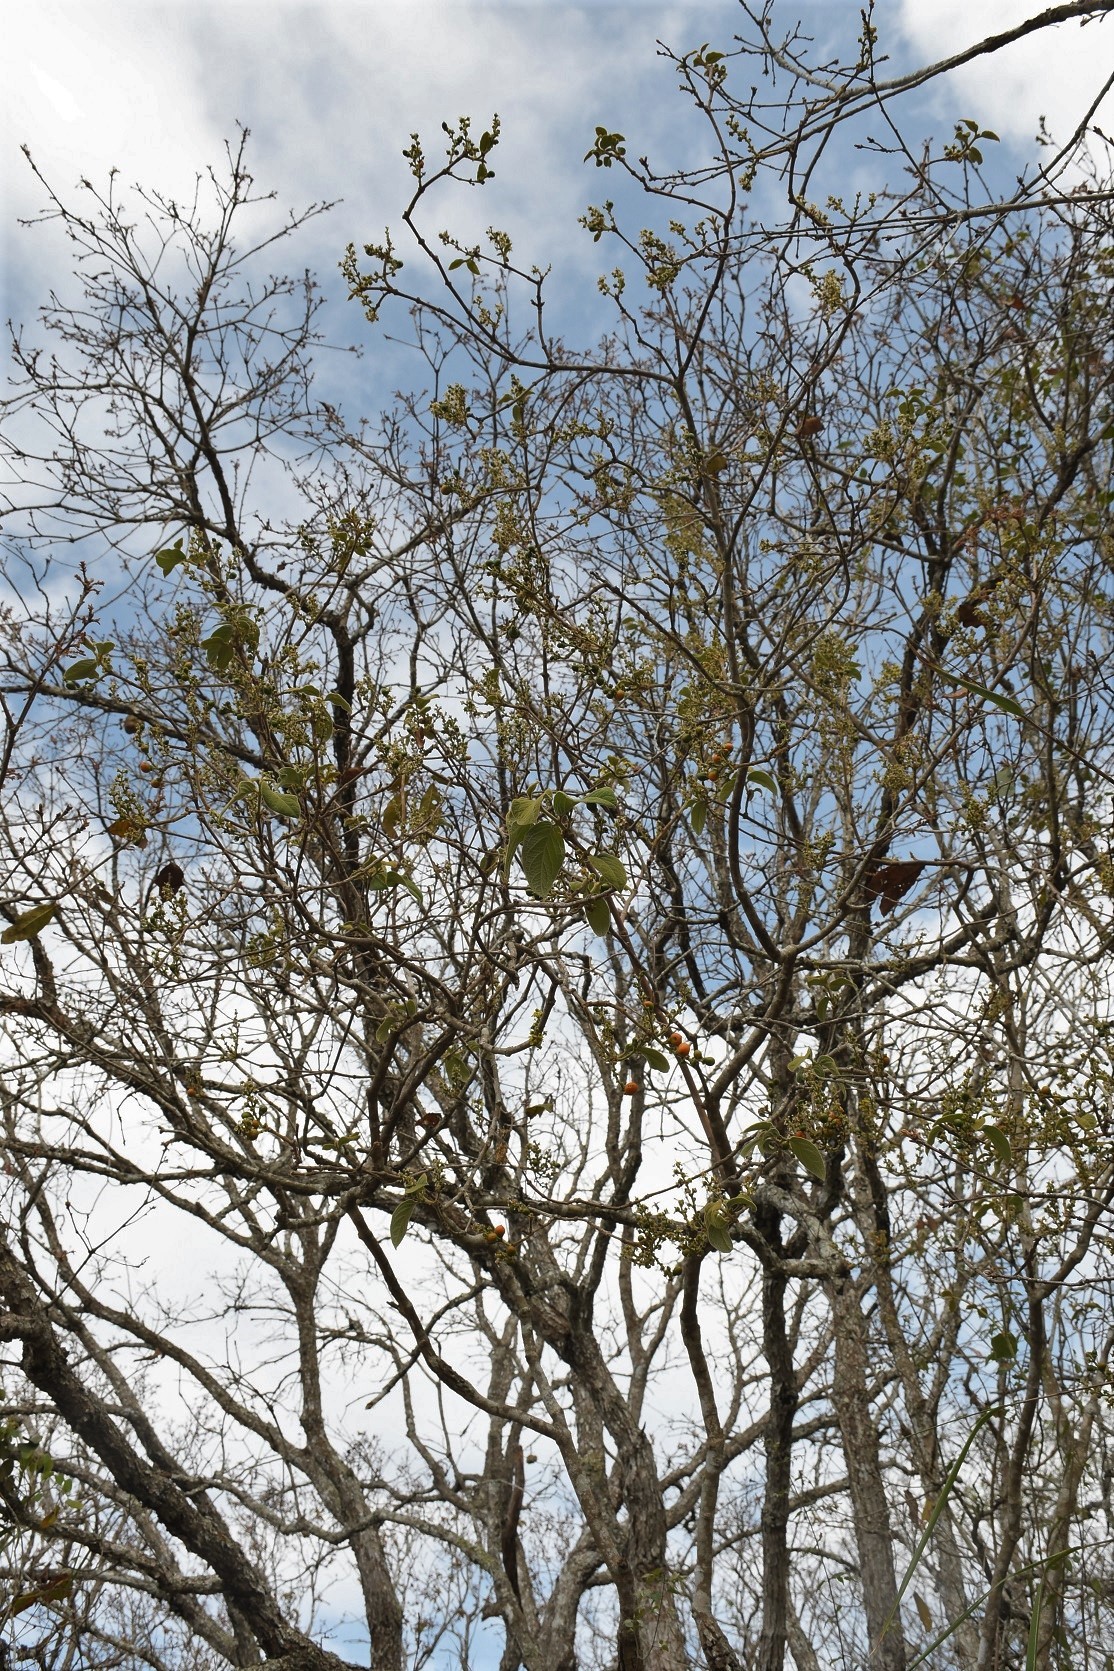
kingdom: Plantae
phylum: Tracheophyta
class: Magnoliopsida
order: Malpighiales
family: Malpighiaceae
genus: Bunchosia
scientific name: Bunchosia montana
